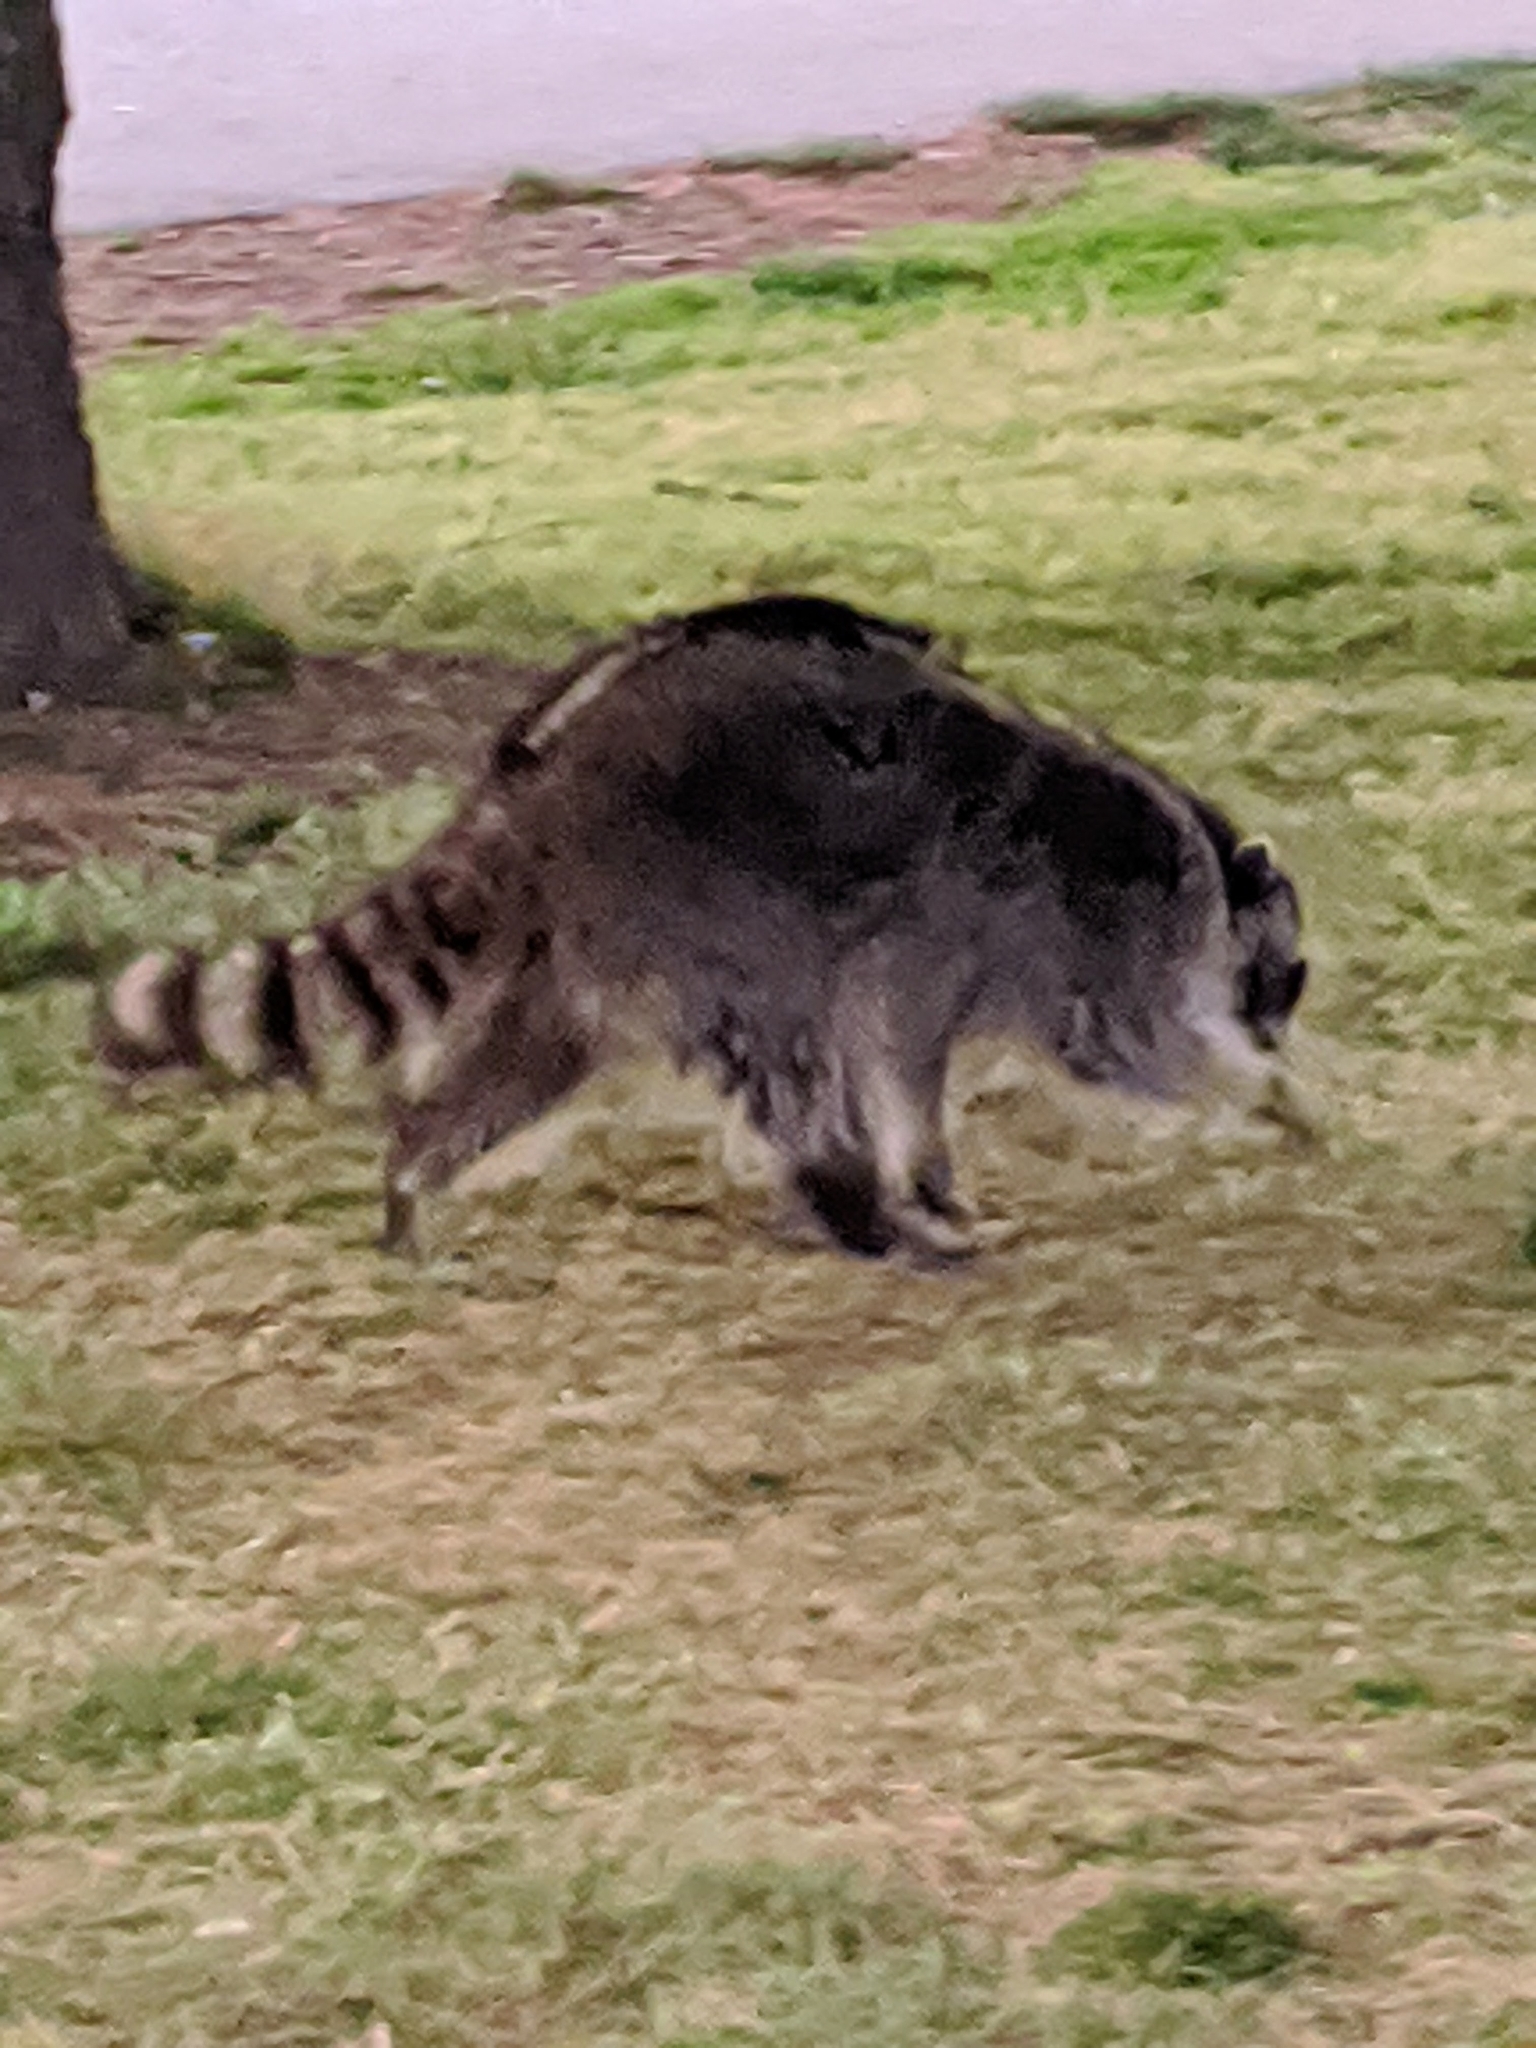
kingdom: Animalia
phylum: Chordata
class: Mammalia
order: Carnivora
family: Procyonidae
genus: Procyon
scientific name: Procyon lotor
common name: Raccoon
